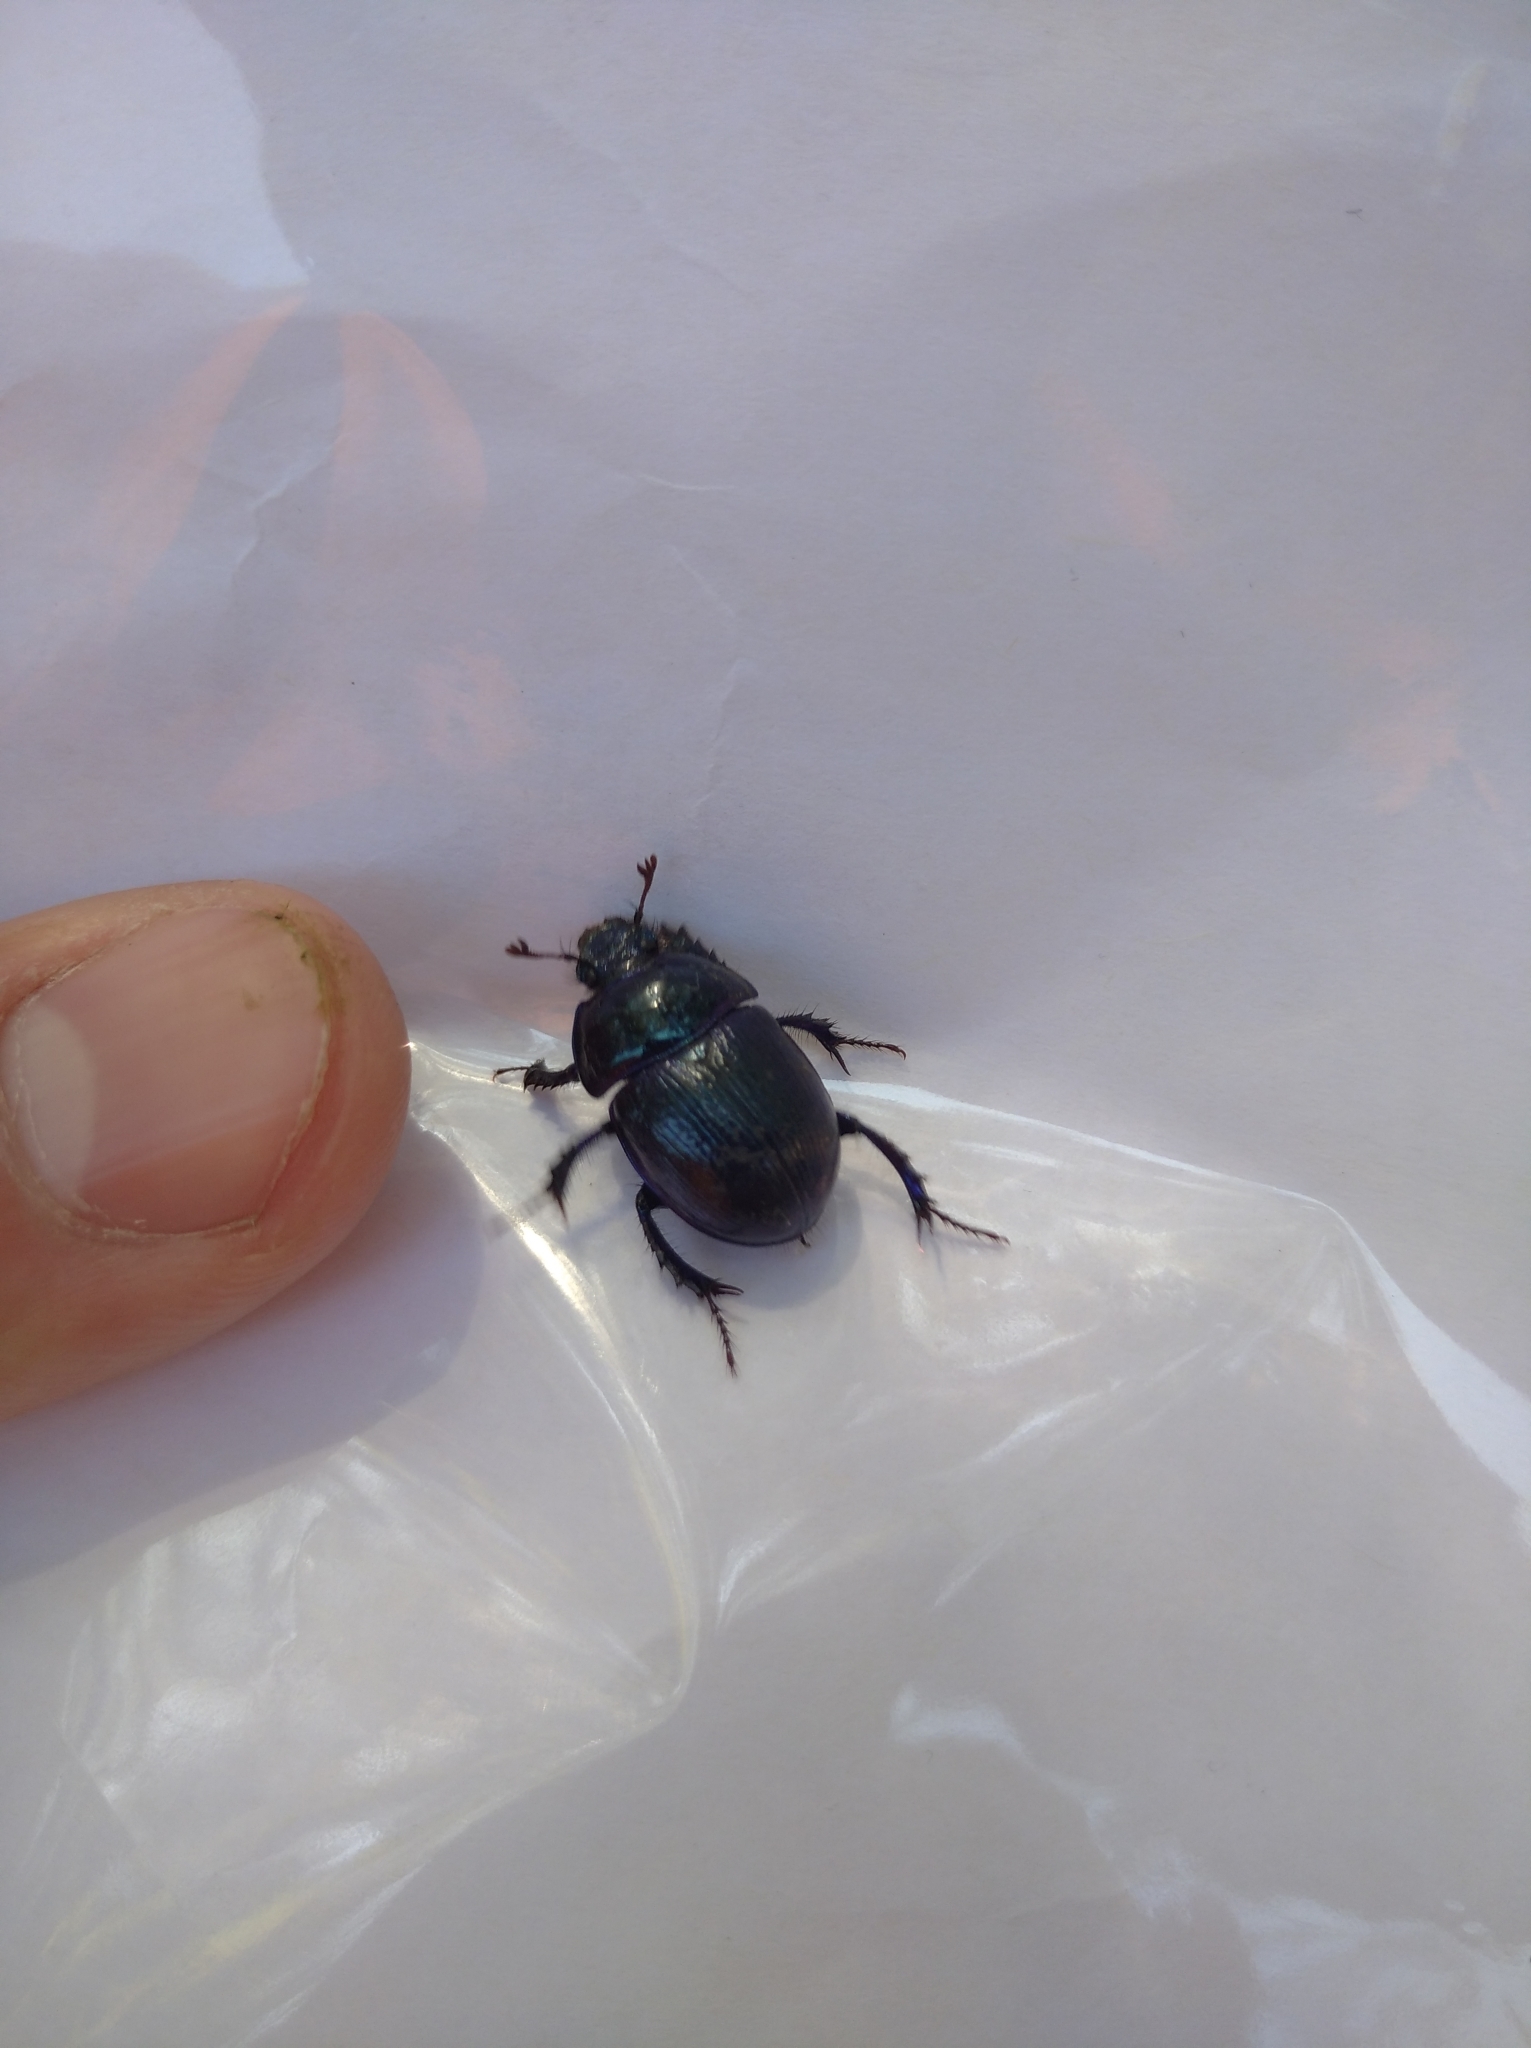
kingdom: Animalia
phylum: Arthropoda
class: Insecta
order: Coleoptera
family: Geotrupidae
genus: Anoplotrupes
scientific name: Anoplotrupes stercorosus
